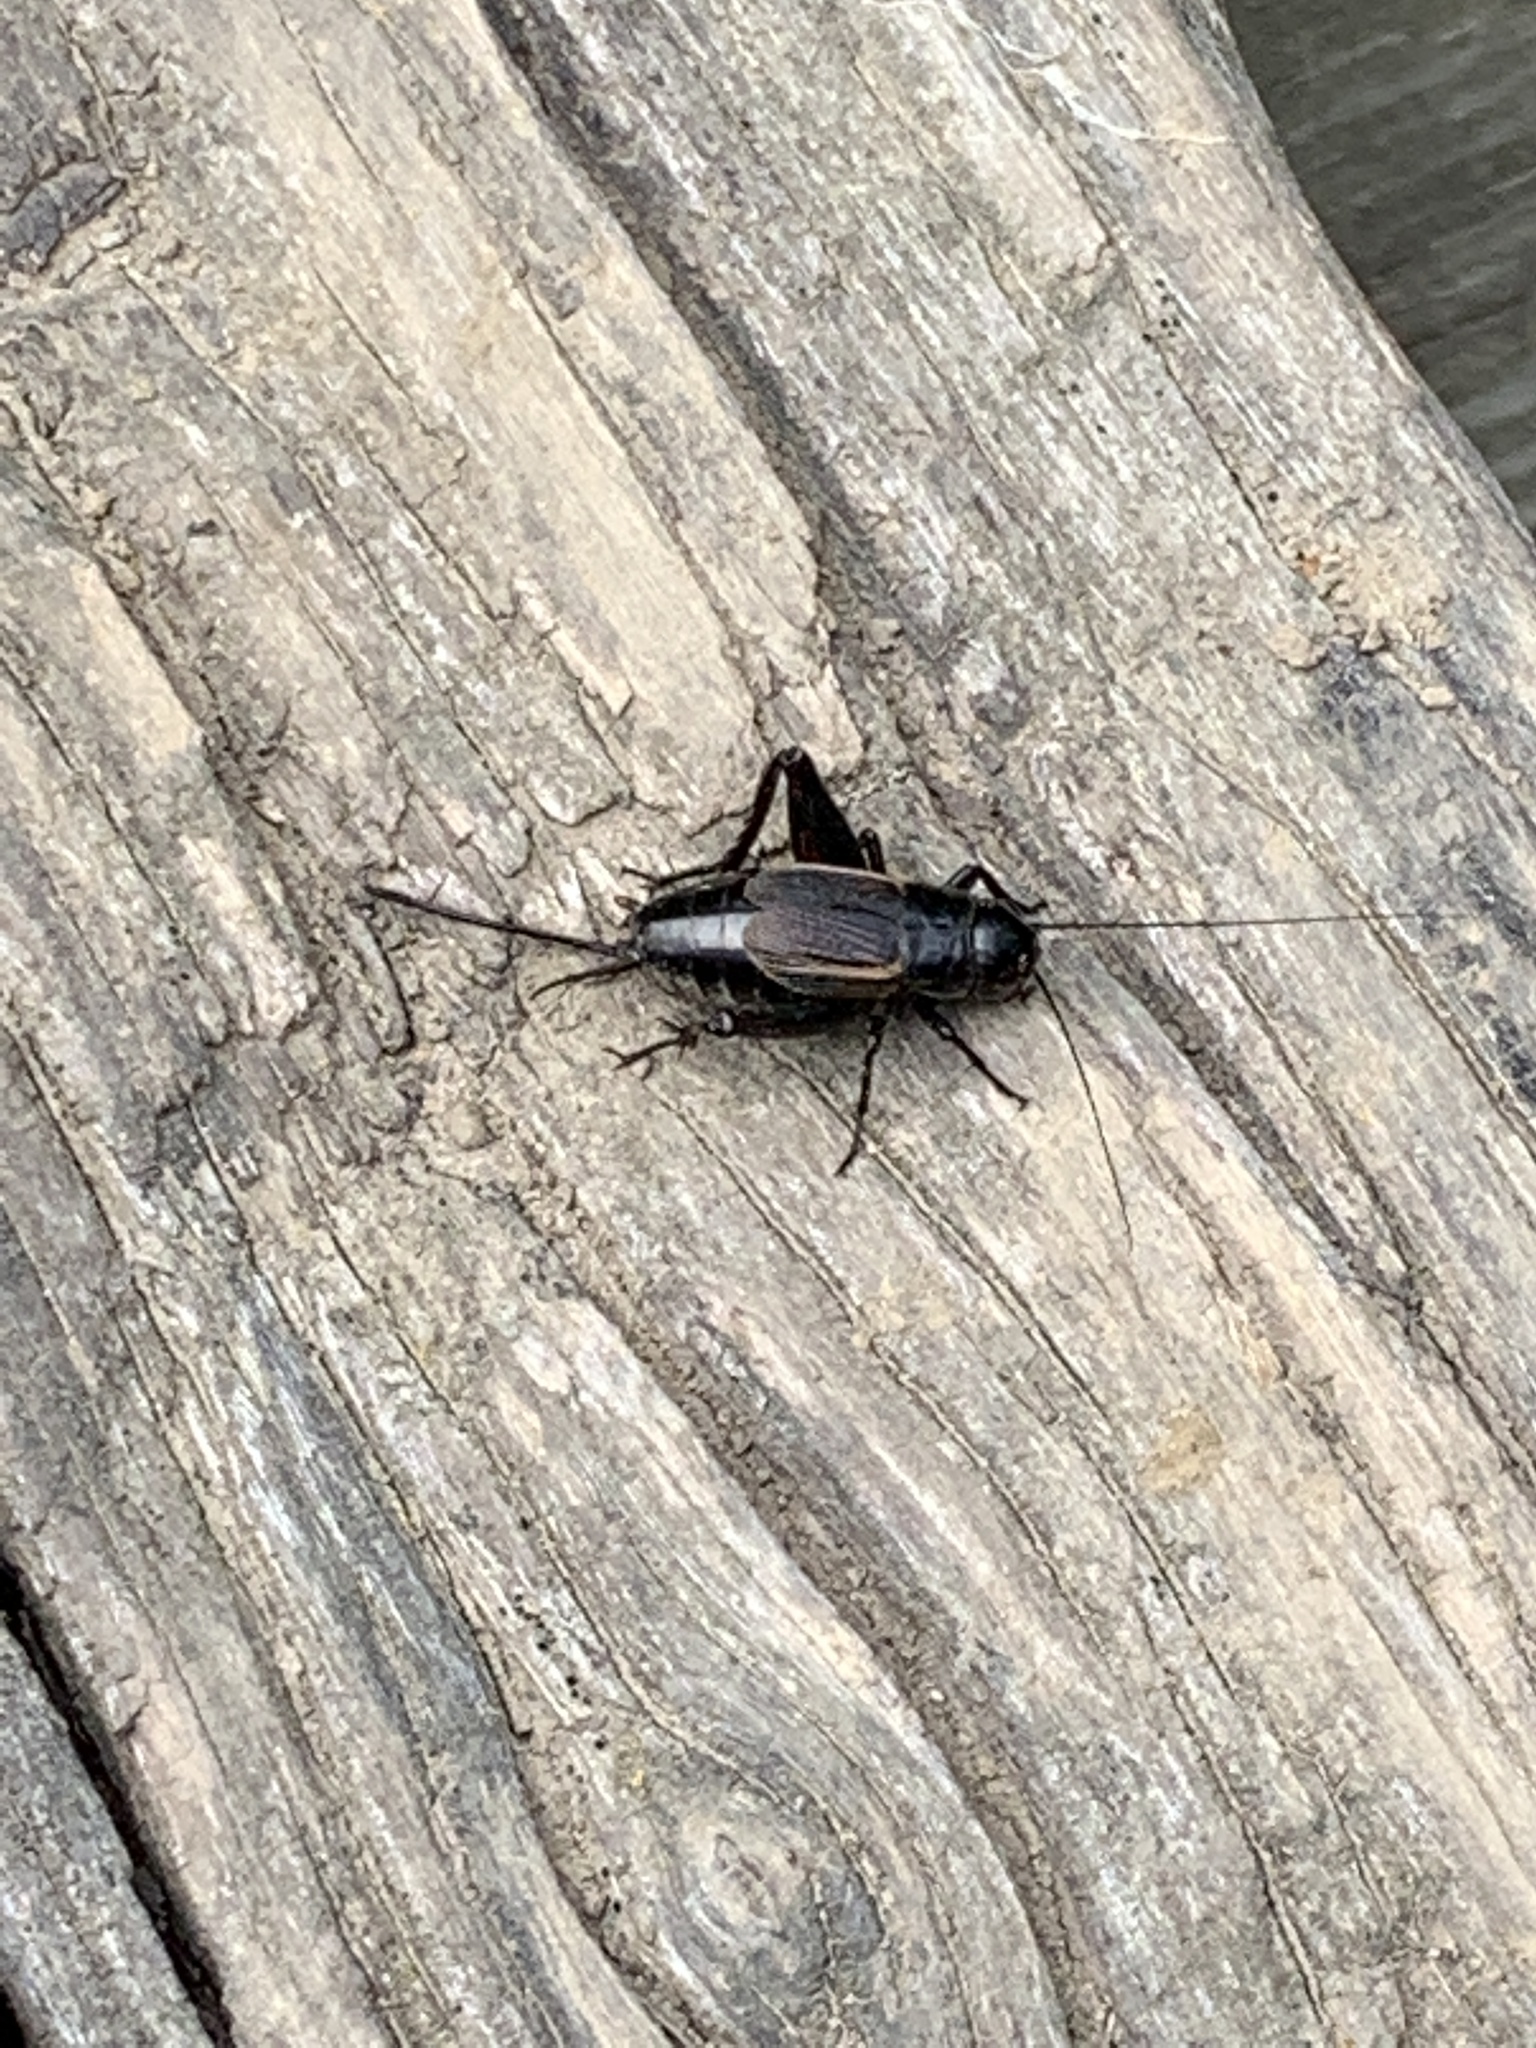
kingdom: Animalia
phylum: Arthropoda
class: Insecta
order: Orthoptera
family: Gryllidae
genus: Gryllus
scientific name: Gryllus pennsylvanicus
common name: Fall field cricket
